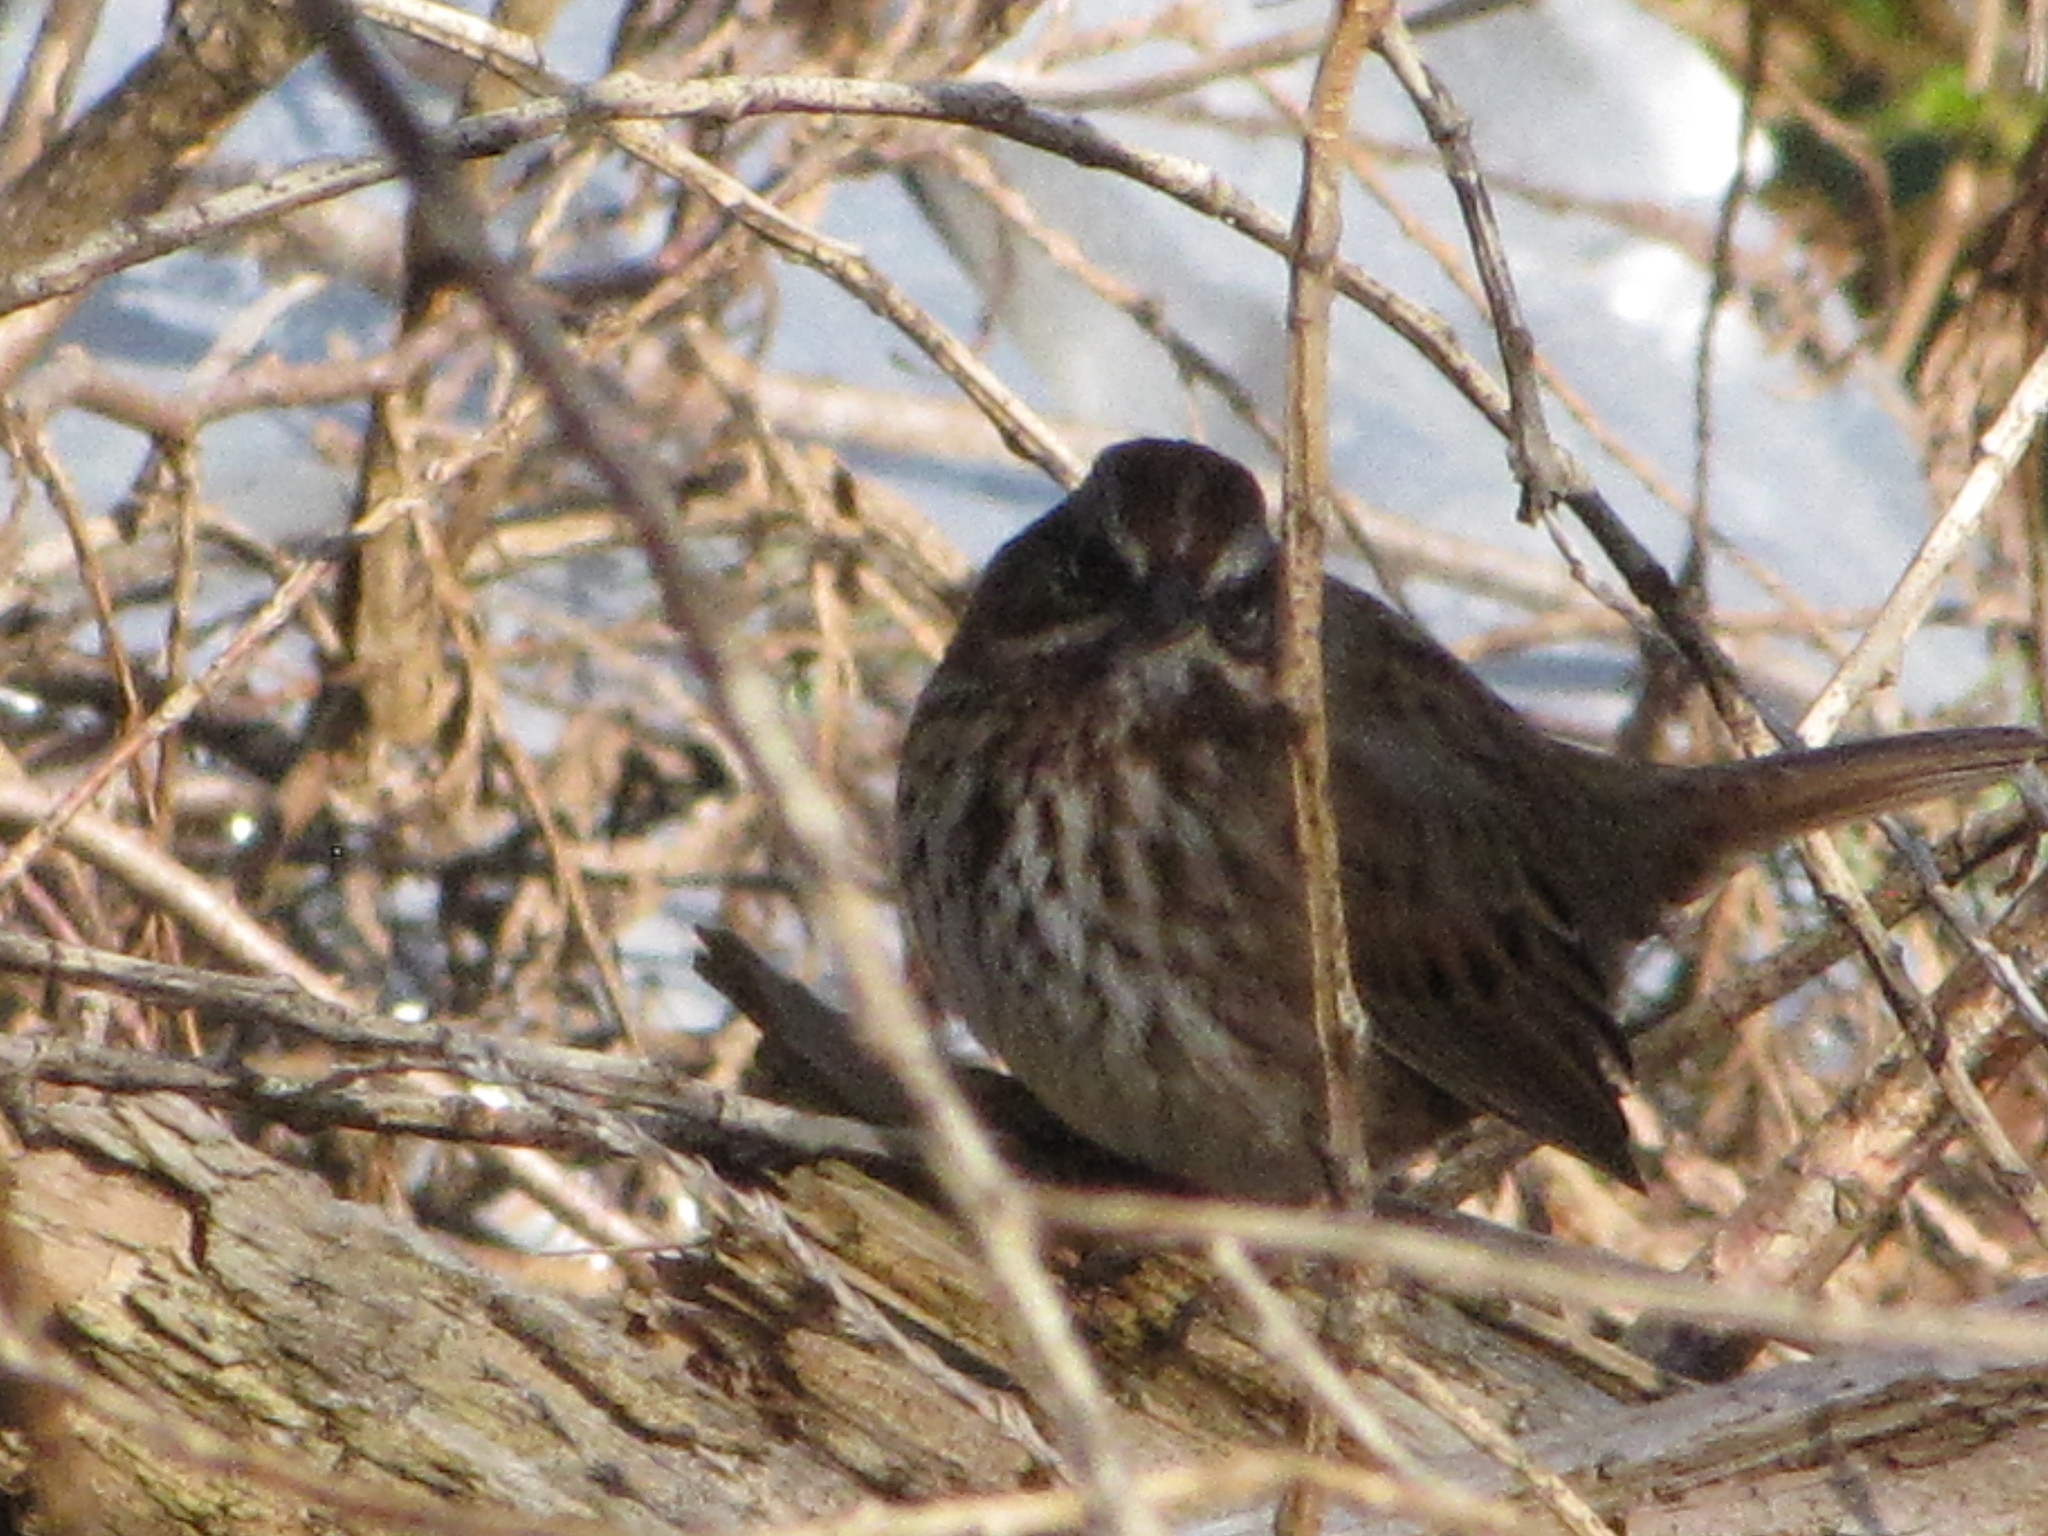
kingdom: Animalia
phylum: Chordata
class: Aves
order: Passeriformes
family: Passerellidae
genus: Melospiza
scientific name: Melospiza melodia
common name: Song sparrow
